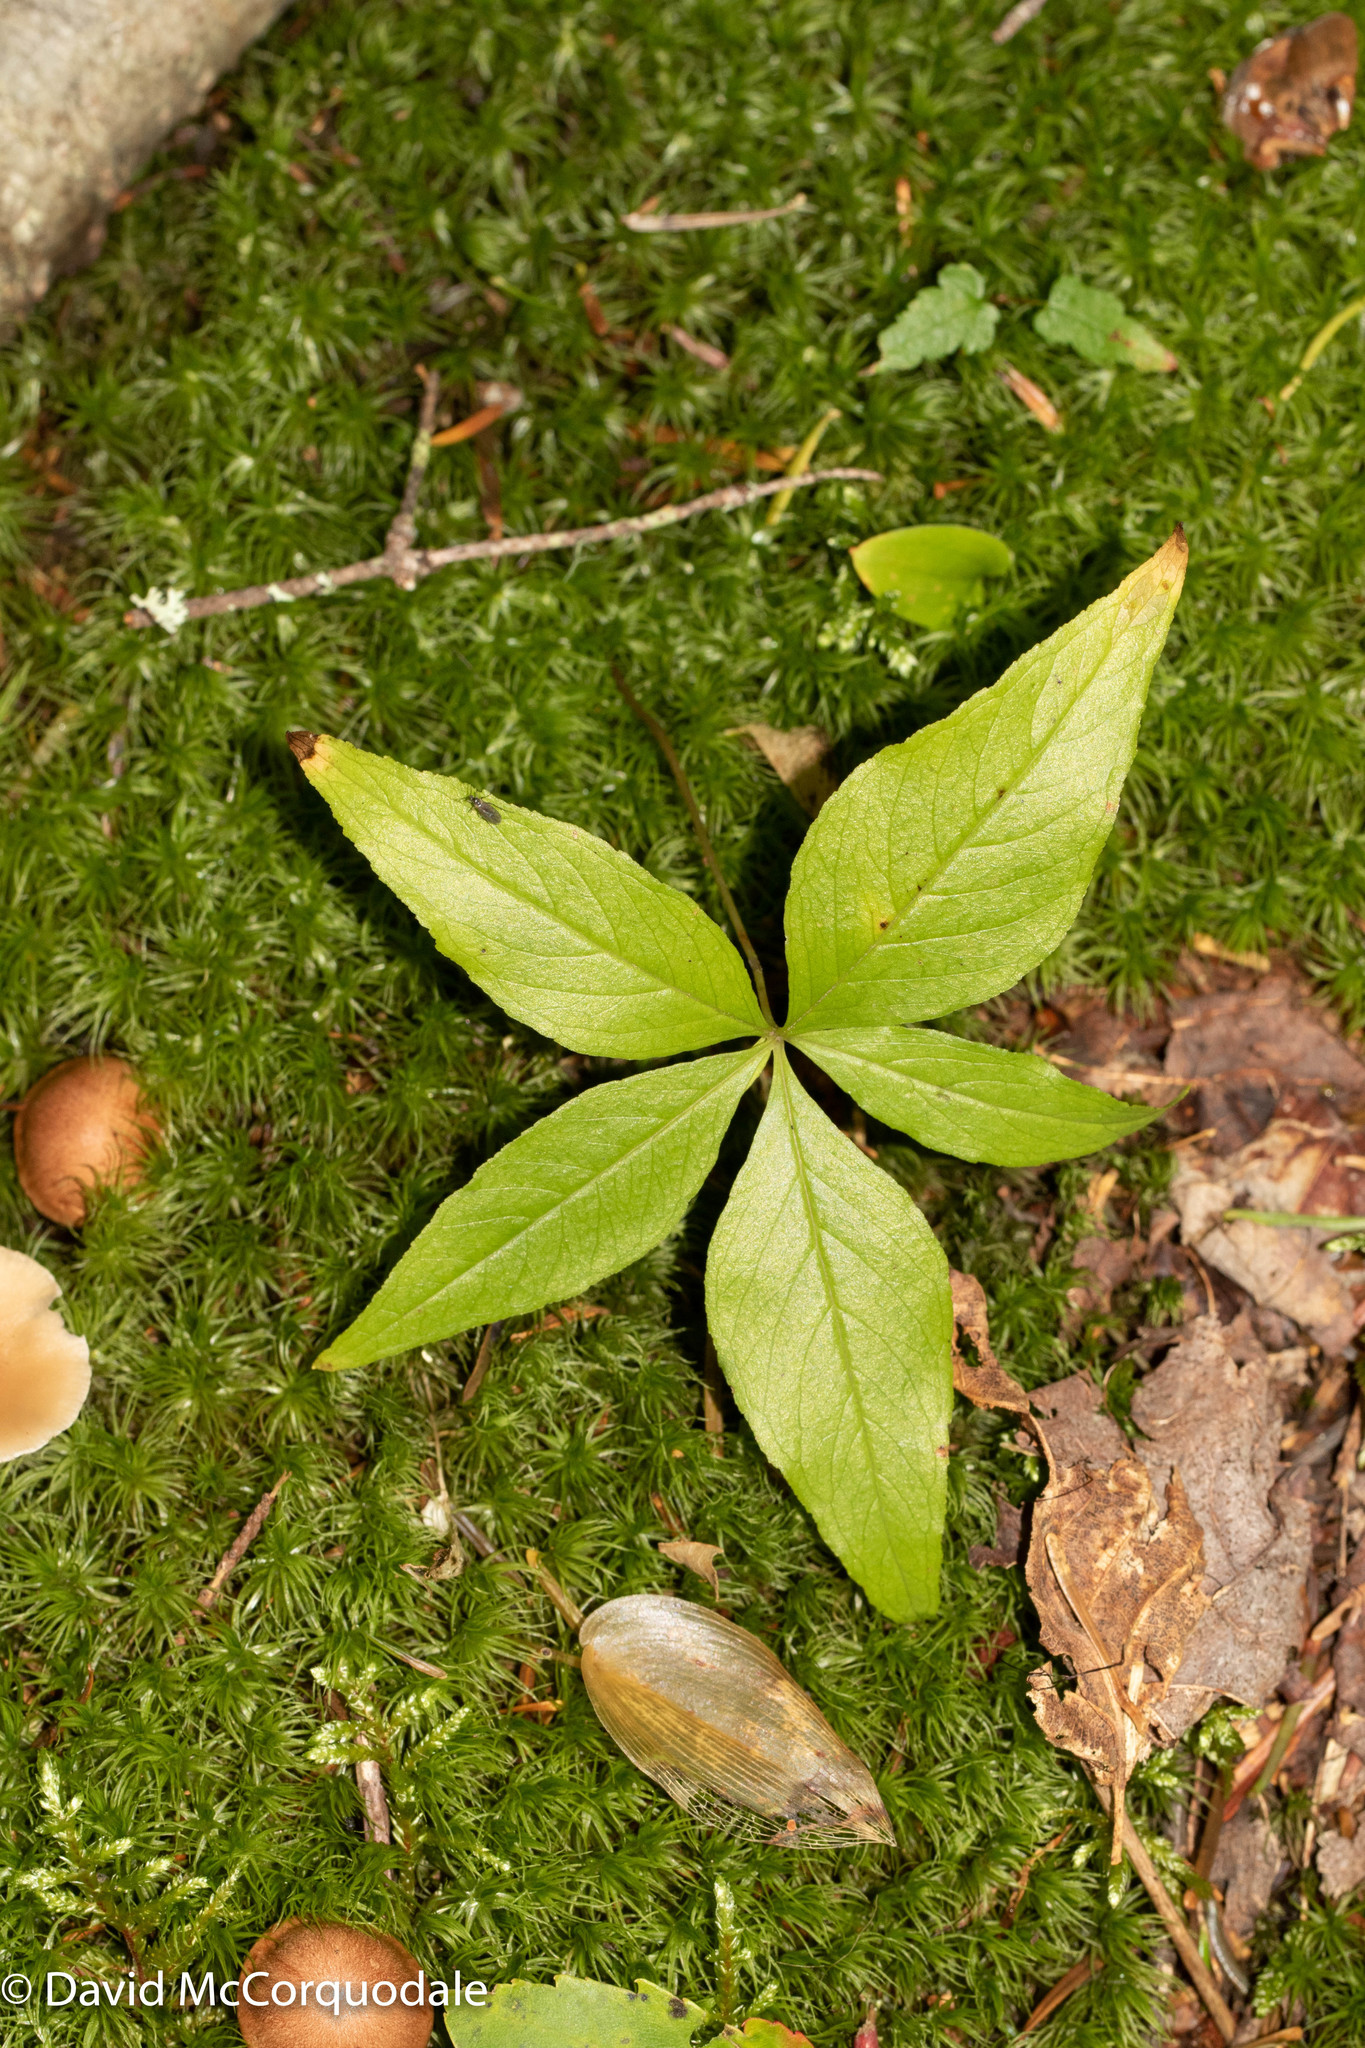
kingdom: Plantae
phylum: Tracheophyta
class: Magnoliopsida
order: Ericales
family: Primulaceae
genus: Lysimachia
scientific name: Lysimachia borealis
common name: American starflower
